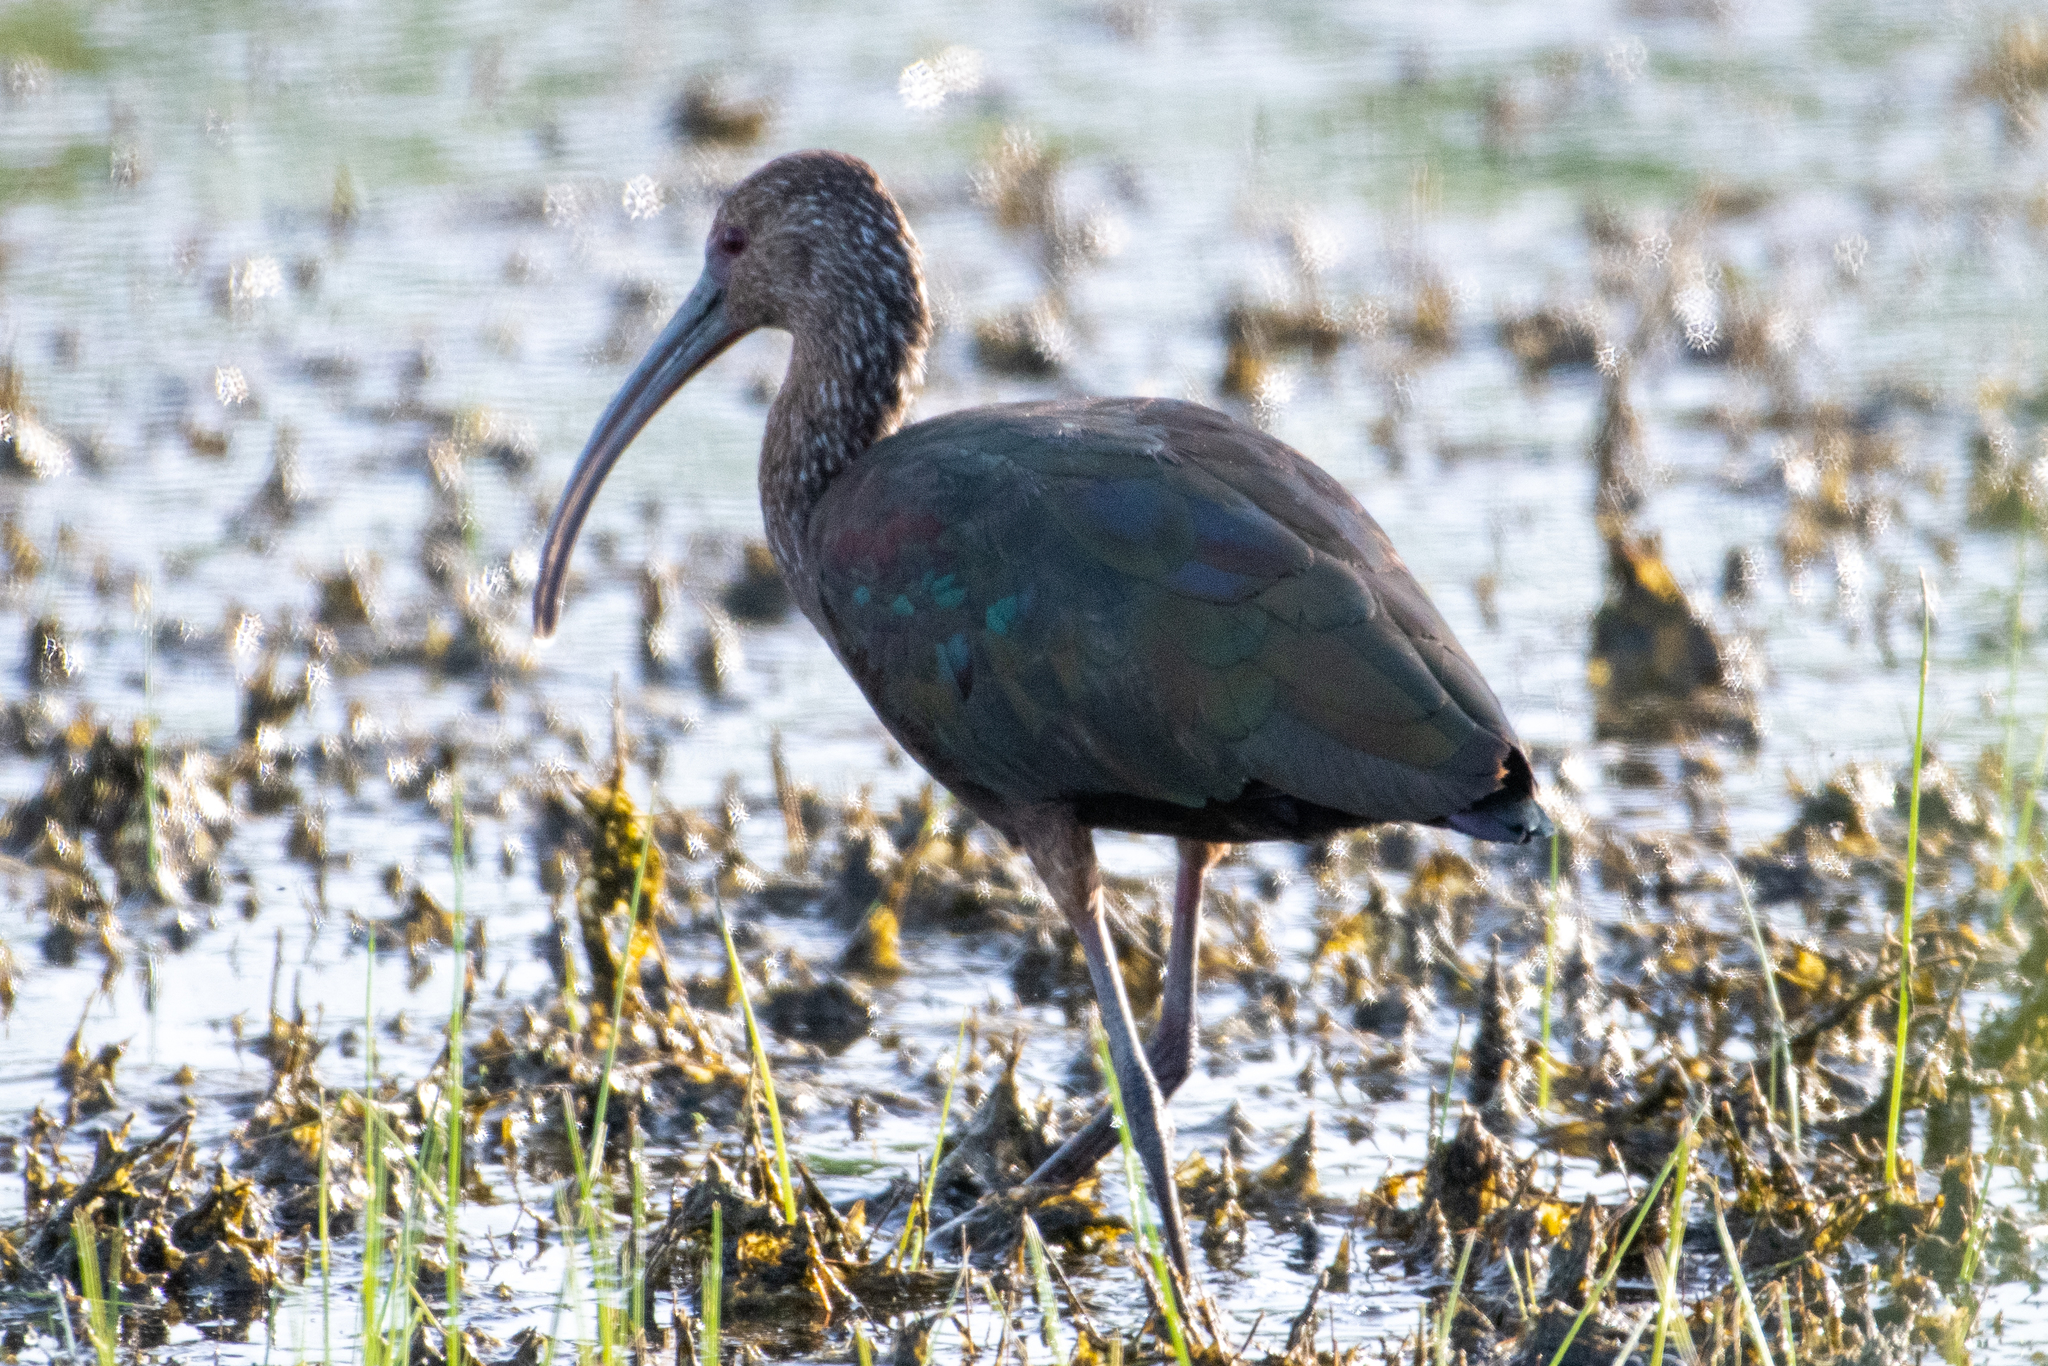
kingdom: Animalia
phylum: Chordata
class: Aves
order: Pelecaniformes
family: Threskiornithidae
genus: Plegadis
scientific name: Plegadis chihi
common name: White-faced ibis
